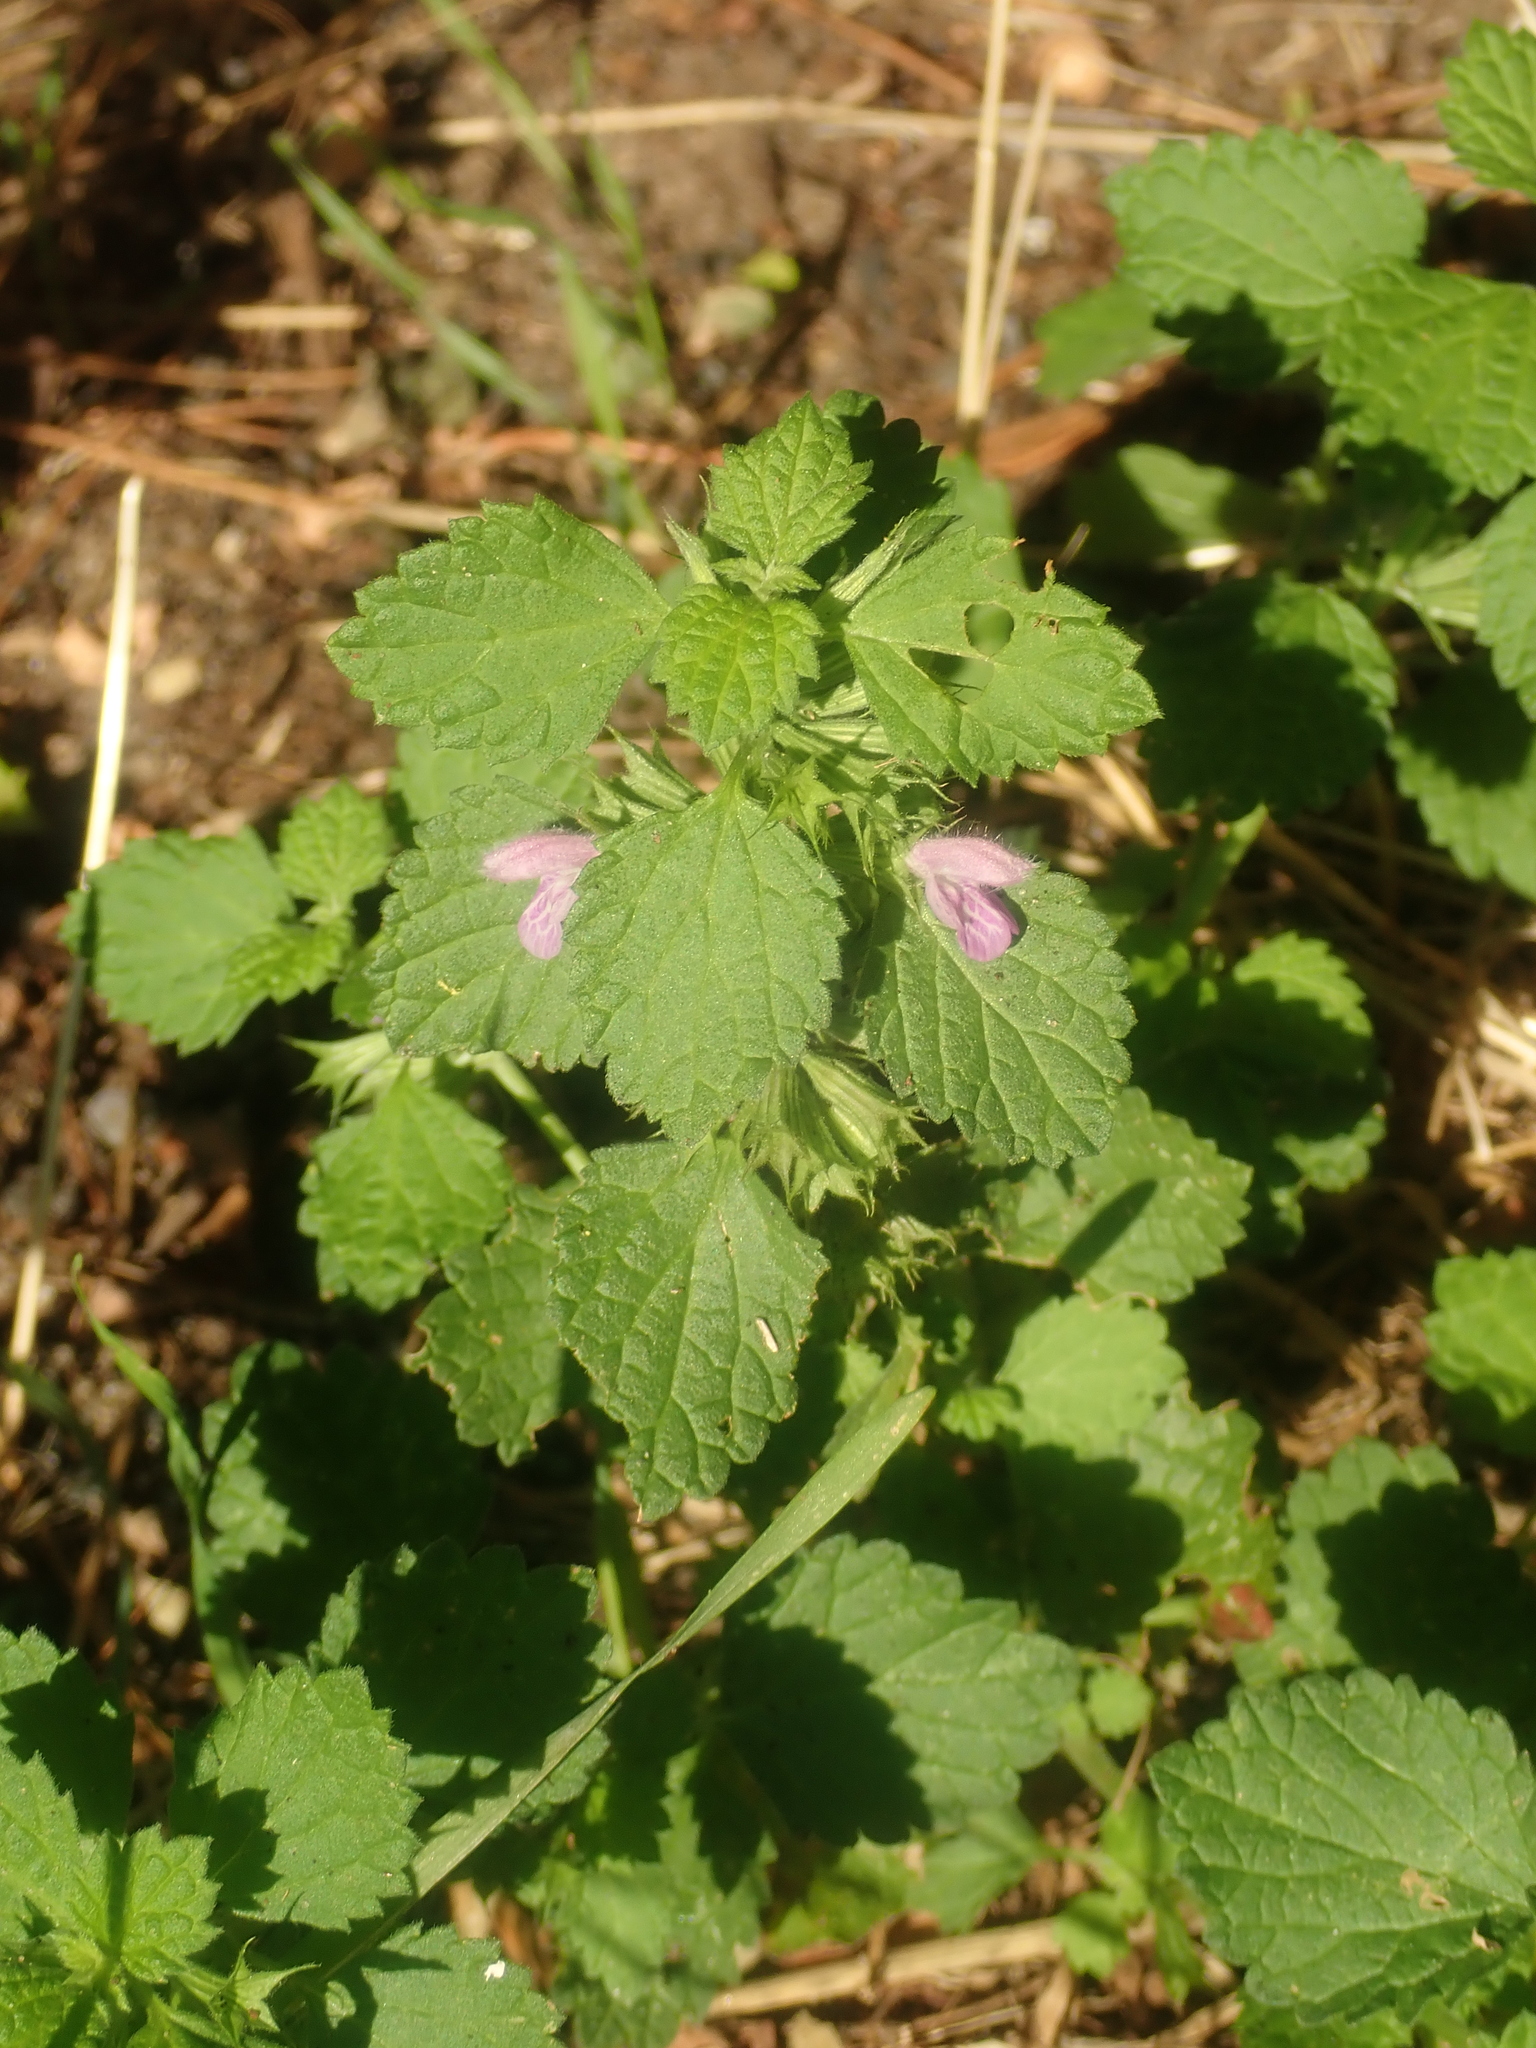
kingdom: Plantae
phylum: Tracheophyta
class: Magnoliopsida
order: Lamiales
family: Lamiaceae
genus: Ballota
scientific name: Ballota nigra
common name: Black horehound
